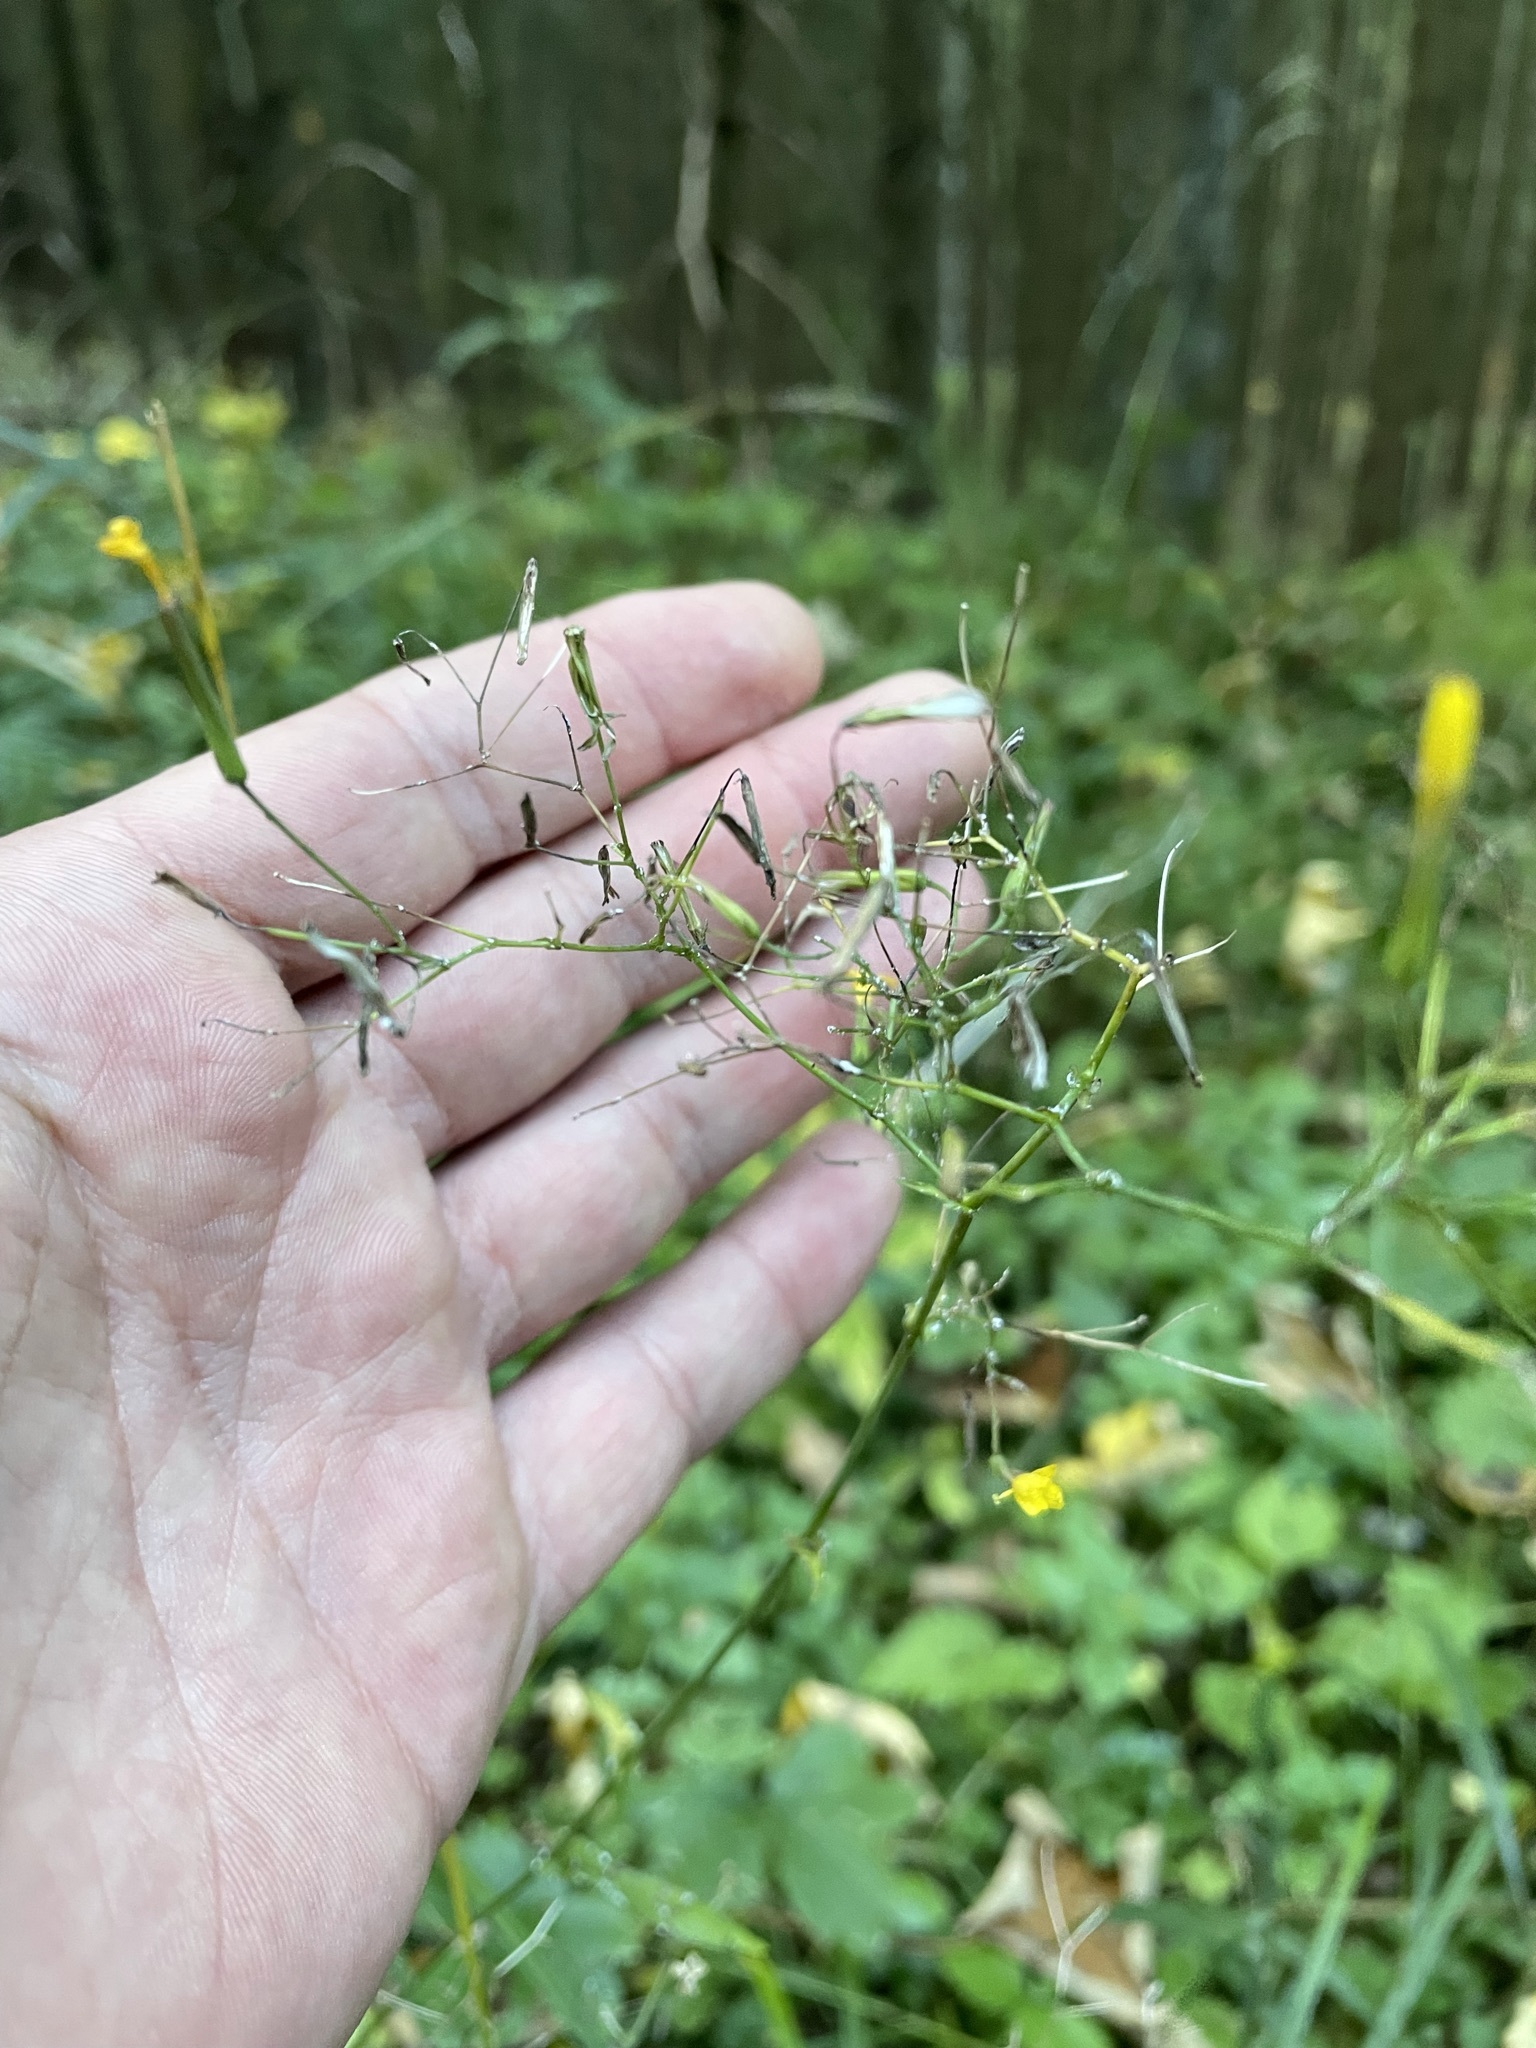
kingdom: Plantae
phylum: Tracheophyta
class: Magnoliopsida
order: Asterales
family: Asteraceae
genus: Mycelis
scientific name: Mycelis muralis
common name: Wall lettuce
